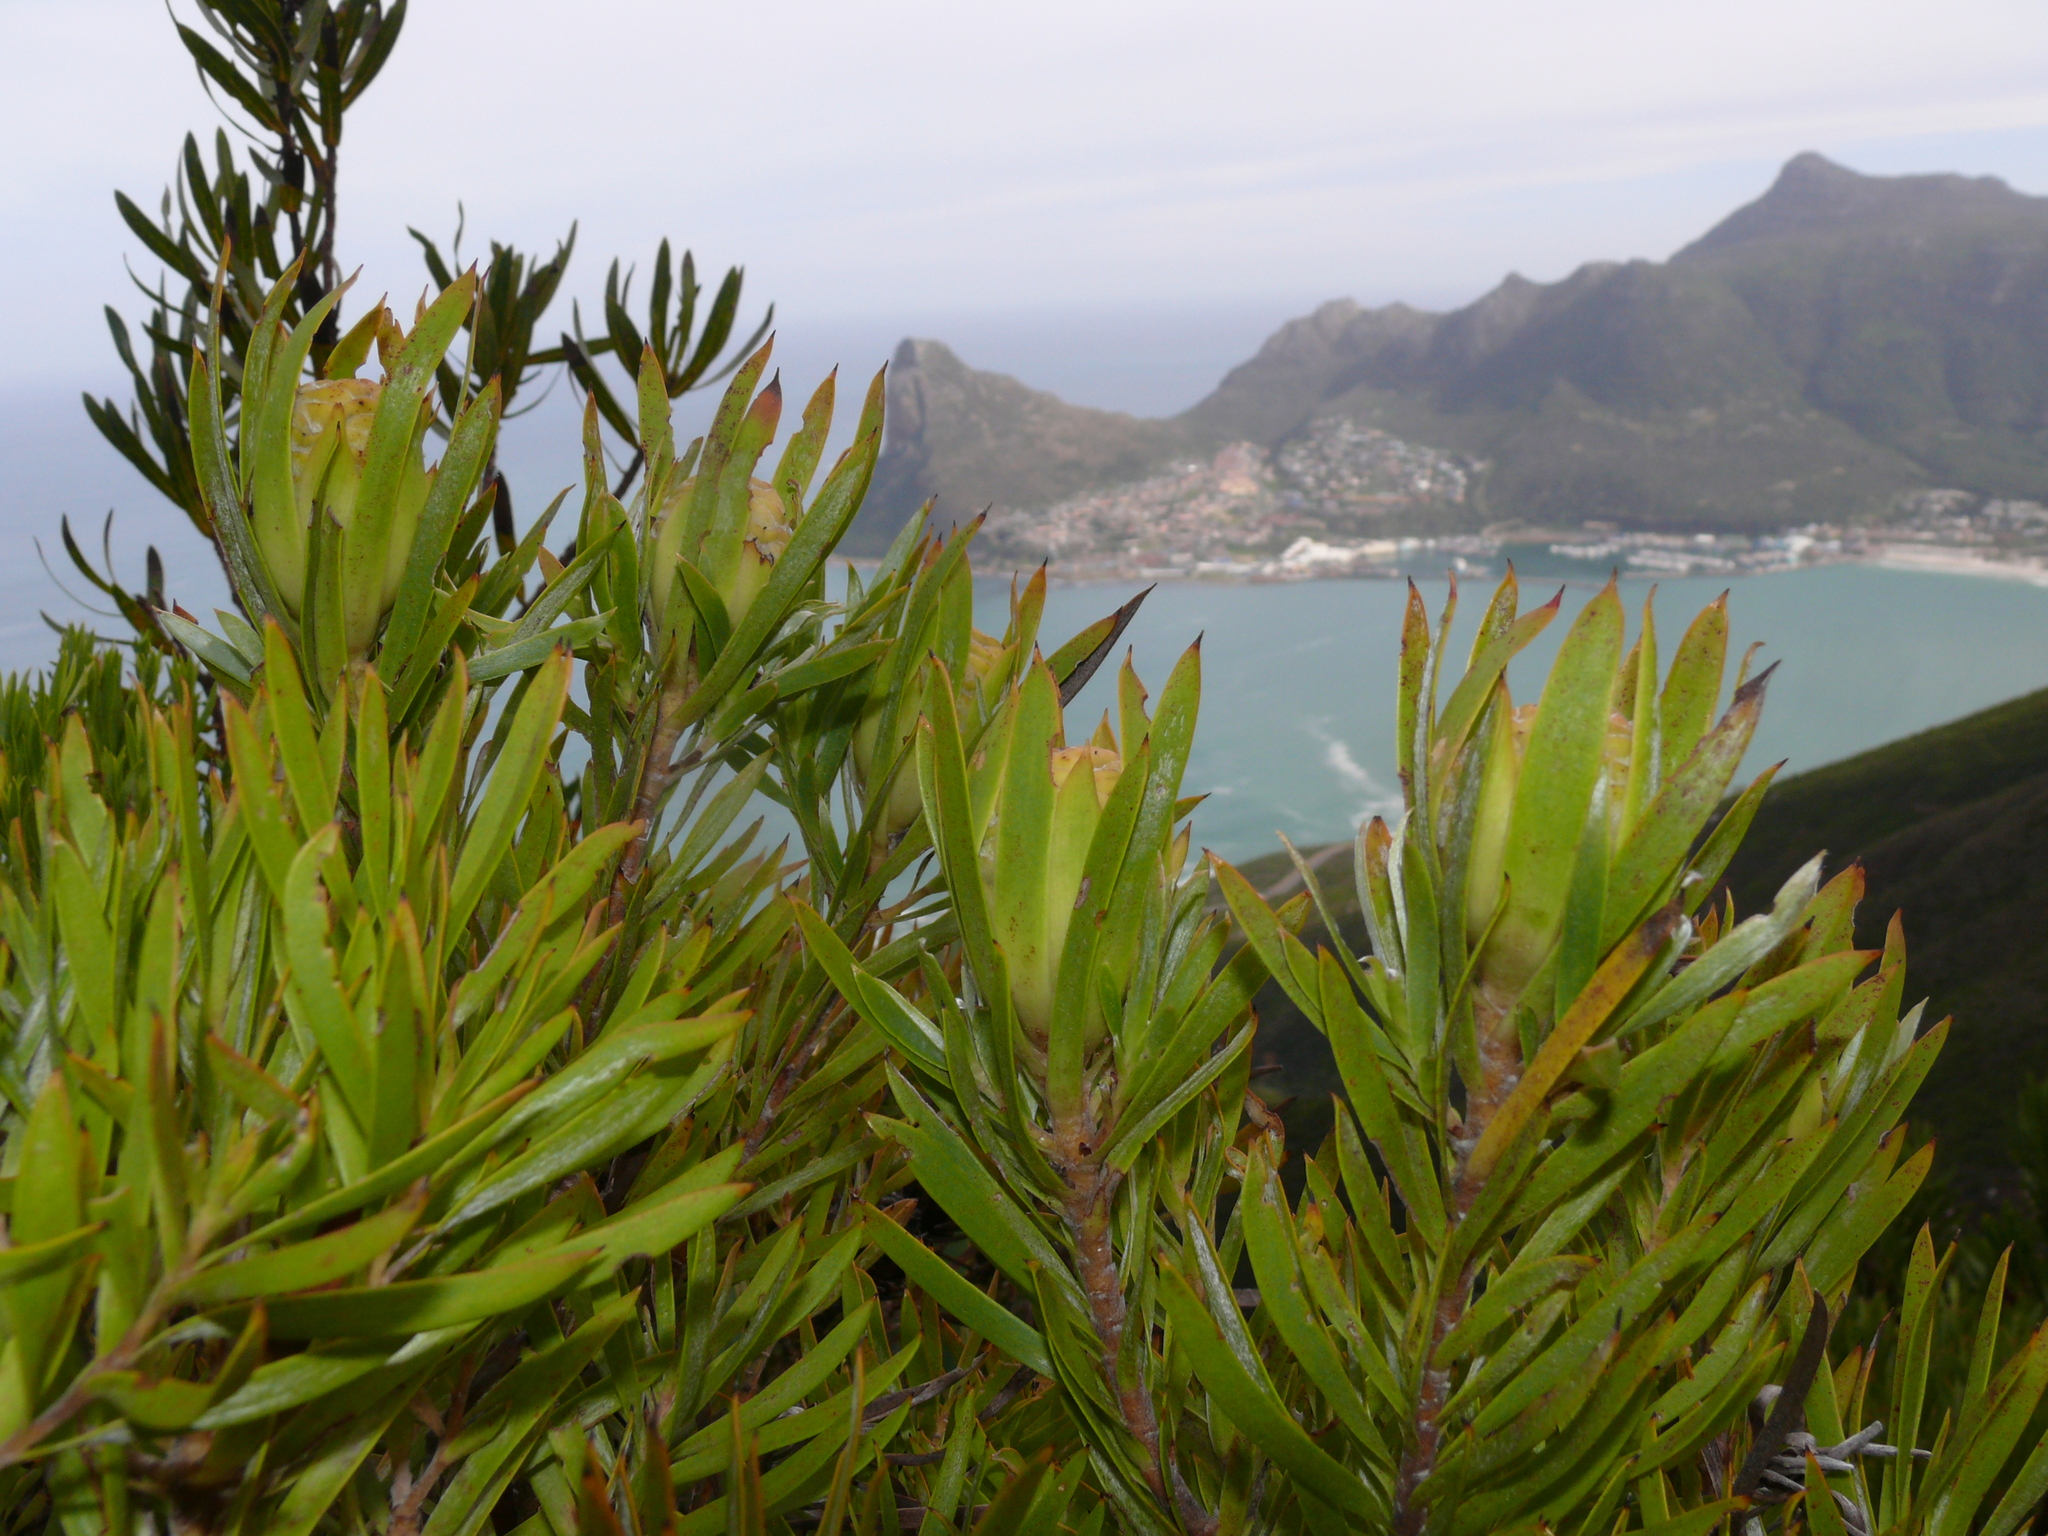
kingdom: Plantae
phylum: Tracheophyta
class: Magnoliopsida
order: Proteales
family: Proteaceae
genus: Leucadendron
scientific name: Leucadendron xanthoconus
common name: Sickle-leaf conebush
